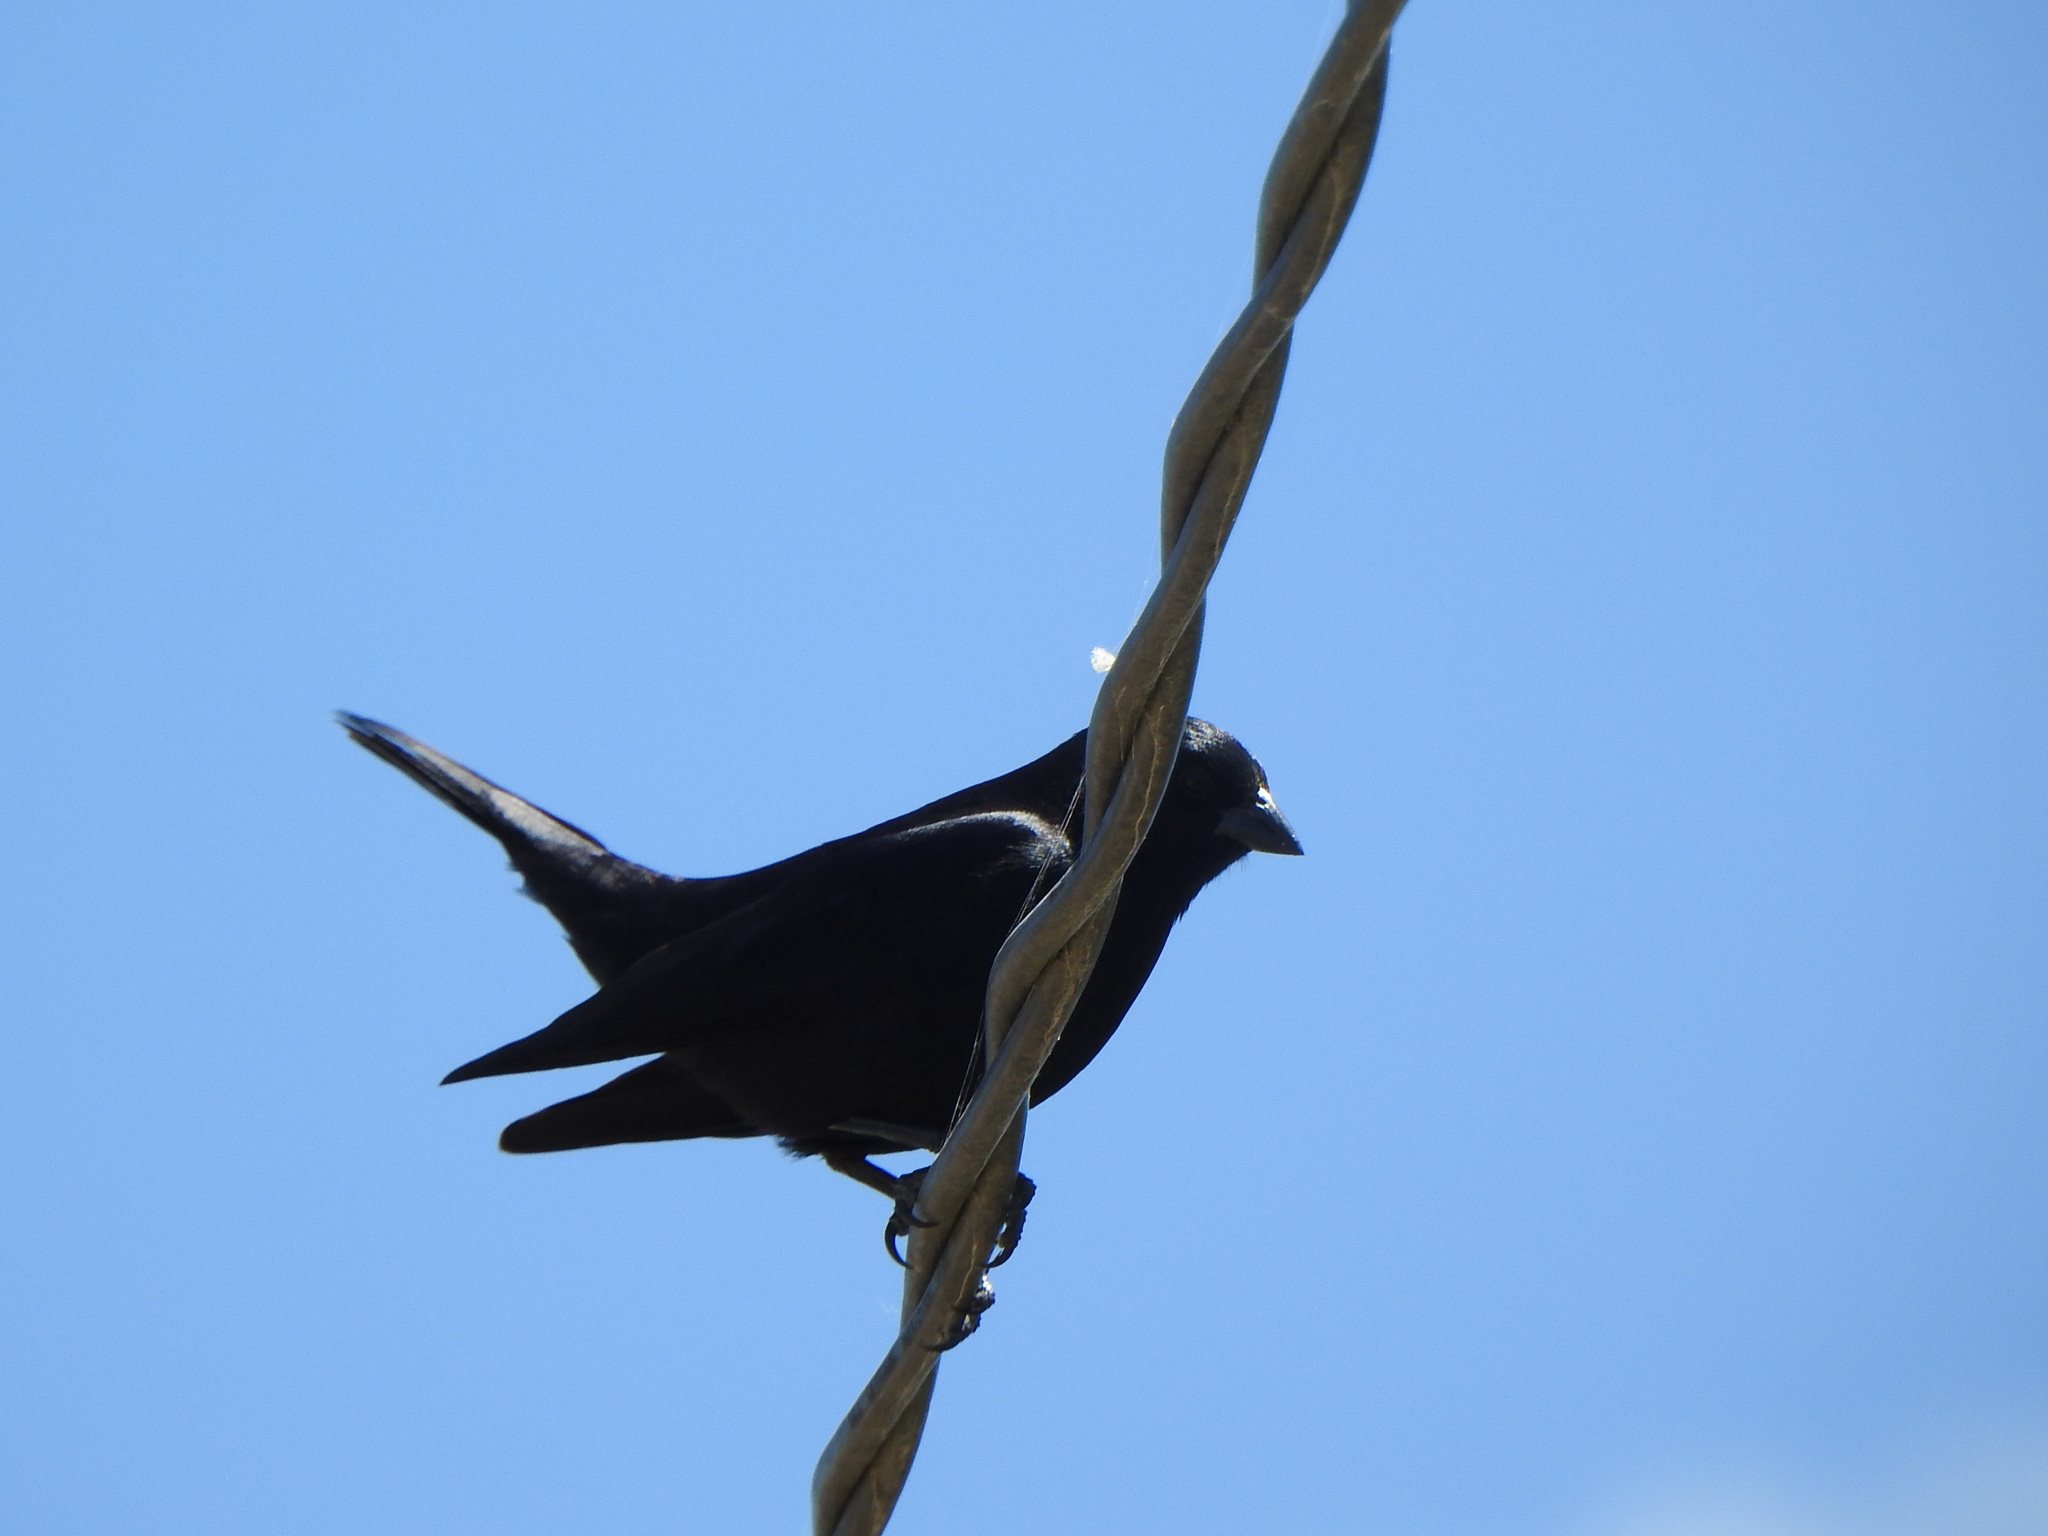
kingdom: Animalia
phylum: Chordata
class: Aves
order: Passeriformes
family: Icteridae
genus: Molothrus
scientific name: Molothrus rufoaxillaris
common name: Screaming cowbird
